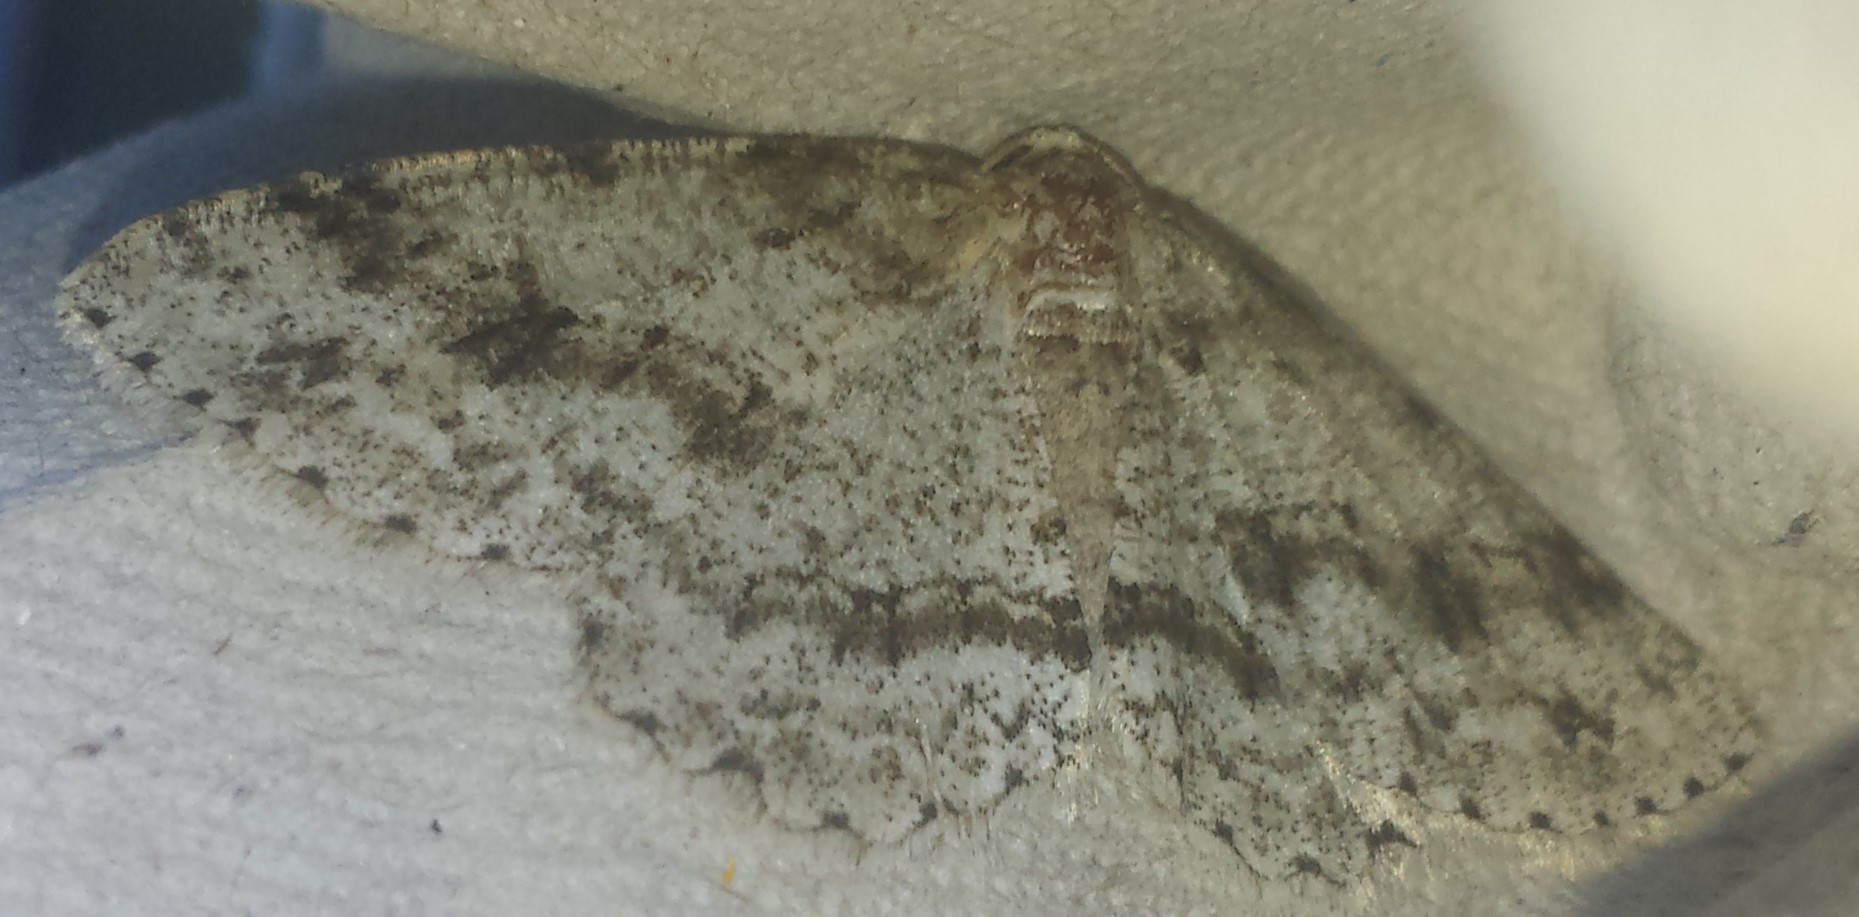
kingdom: Animalia
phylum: Arthropoda
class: Insecta
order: Lepidoptera
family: Geometridae
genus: Ectropis
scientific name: Ectropis crepuscularia
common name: Engrailed
